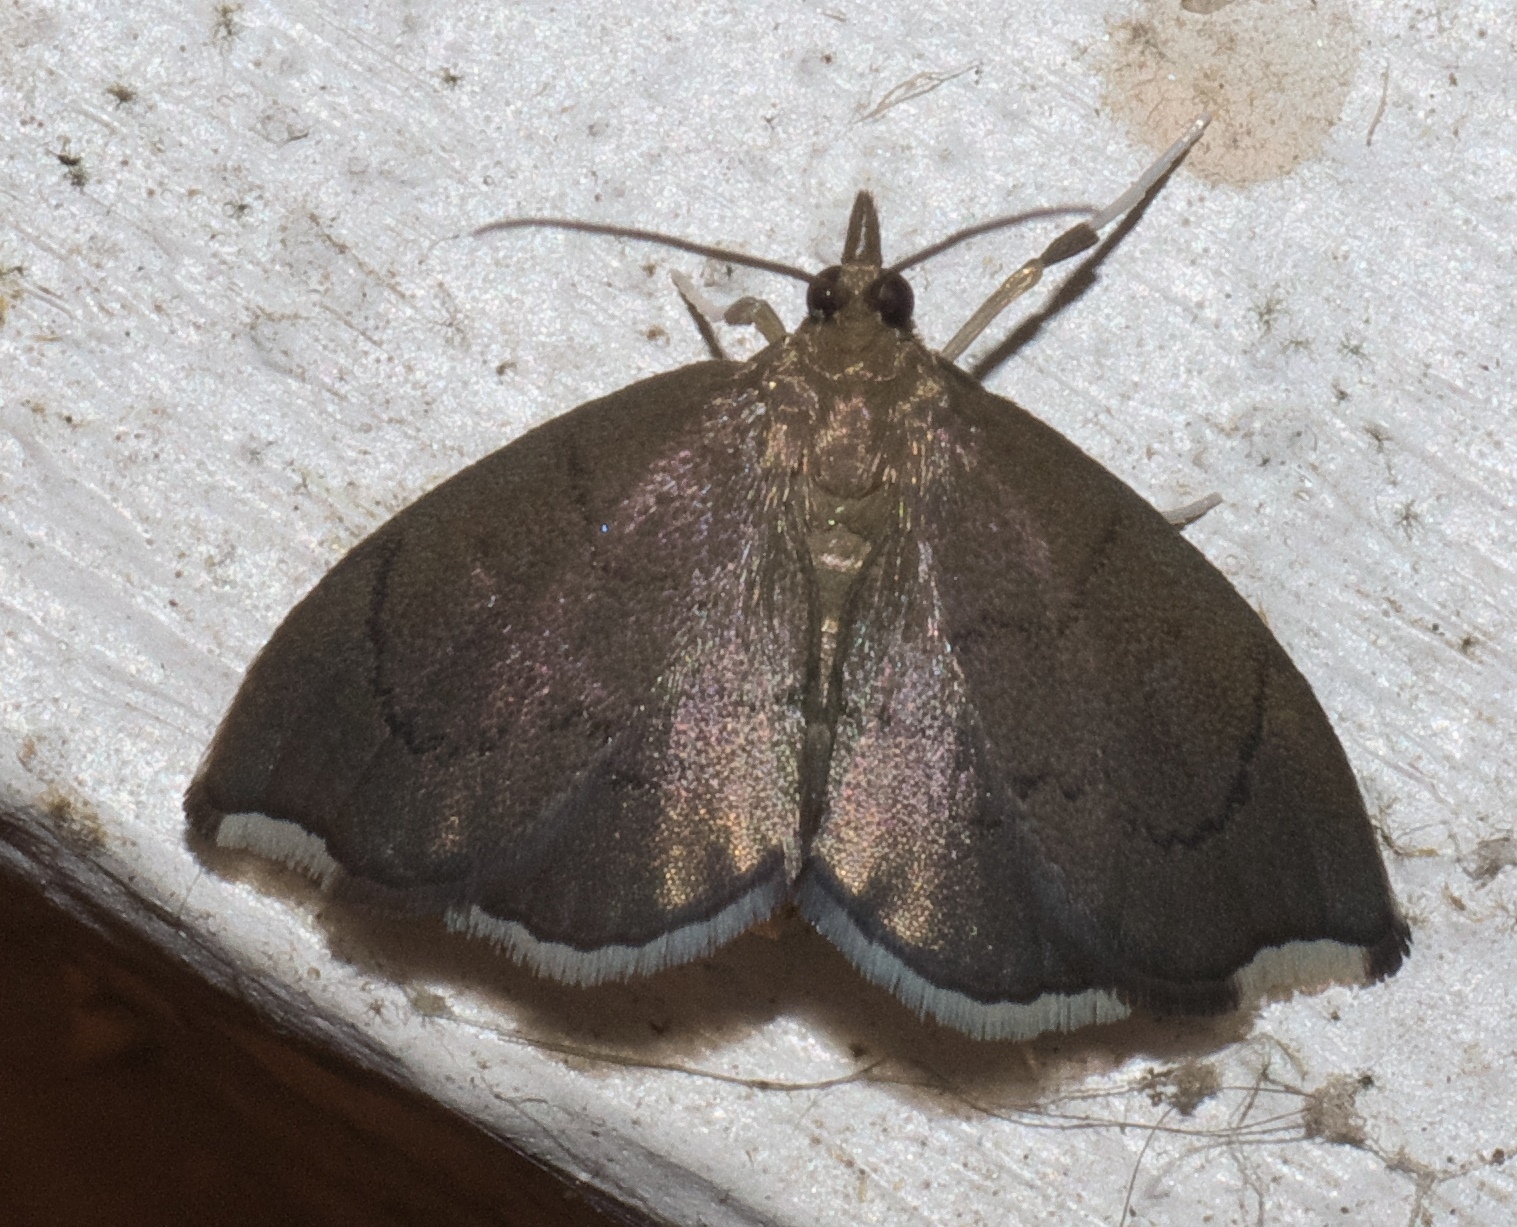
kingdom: Animalia
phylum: Arthropoda
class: Insecta
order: Lepidoptera
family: Crambidae
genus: Perispasta
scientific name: Perispasta caeculalis
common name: Titian peale's moth
